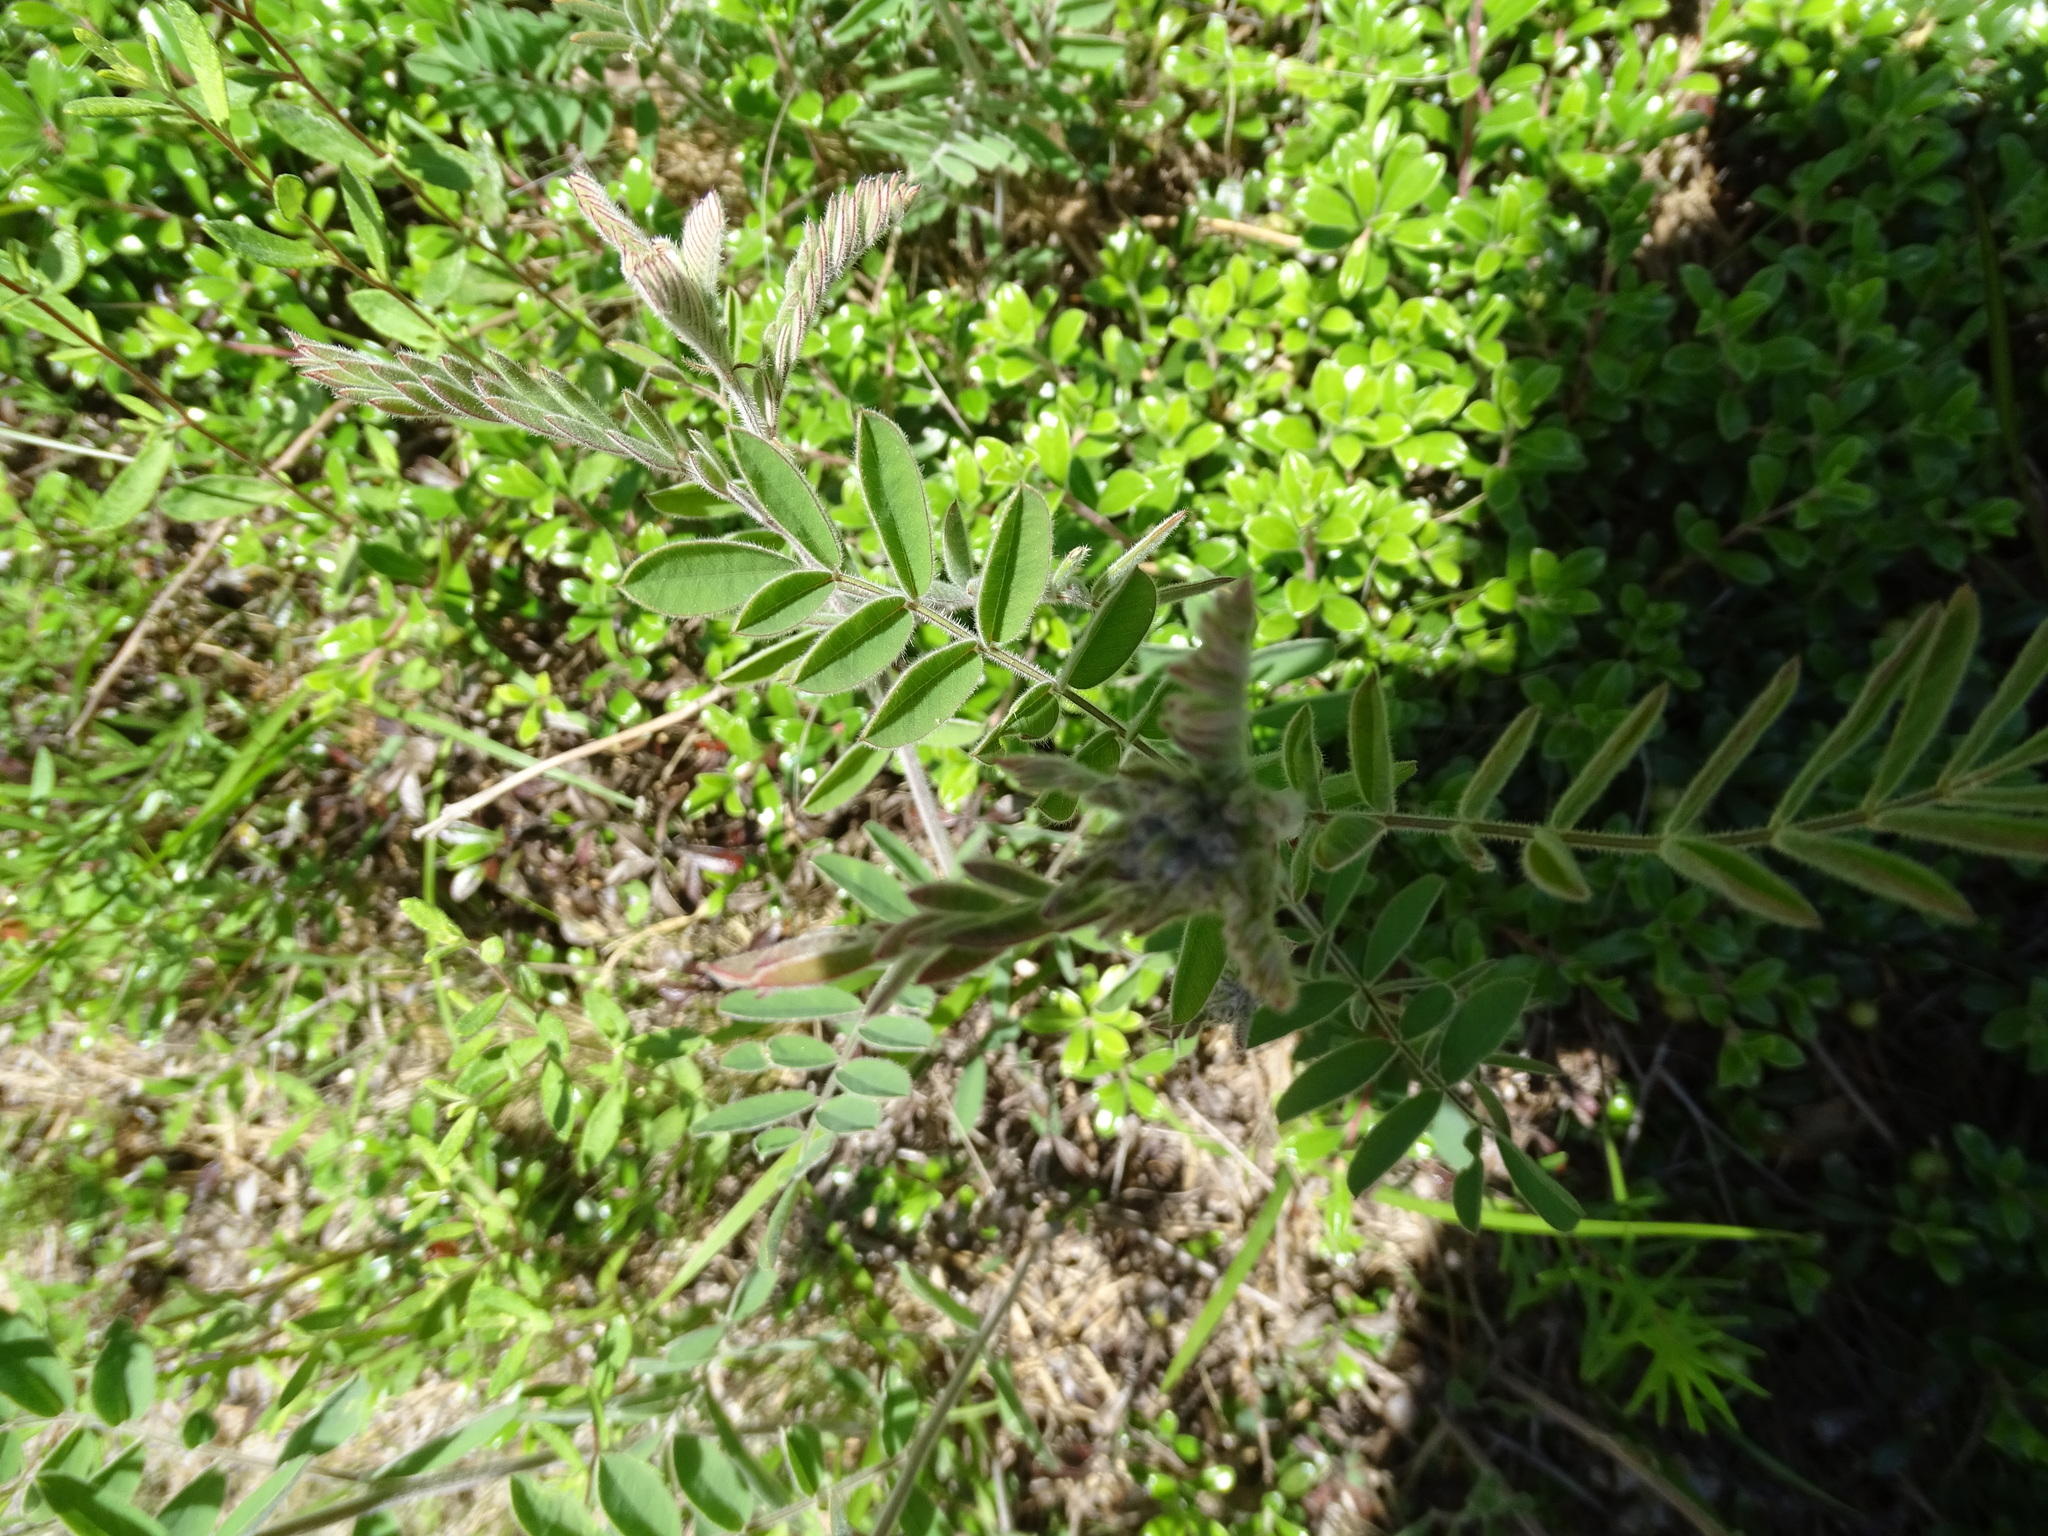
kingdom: Plantae
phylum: Tracheophyta
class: Magnoliopsida
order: Fabales
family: Fabaceae
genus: Tephrosia
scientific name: Tephrosia virginiana
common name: Rabbit-pea
